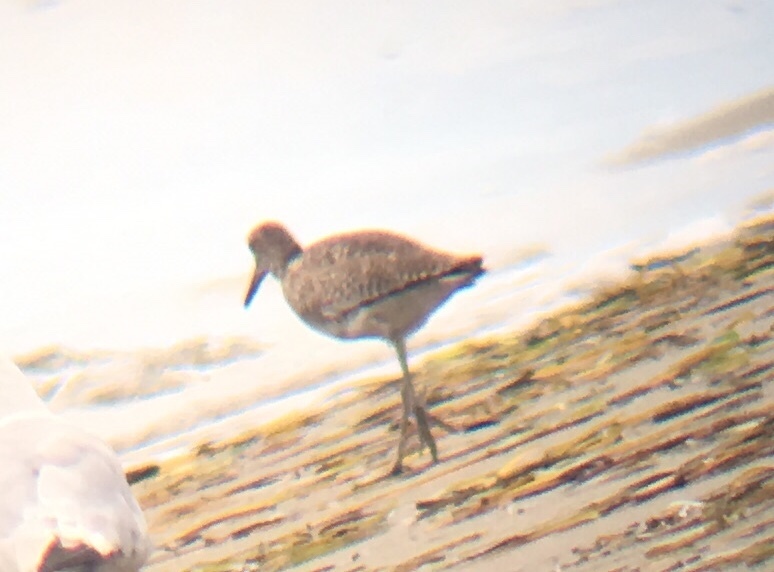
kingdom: Animalia
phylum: Chordata
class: Aves
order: Charadriiformes
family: Scolopacidae
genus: Tringa
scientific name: Tringa semipalmata
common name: Willet
